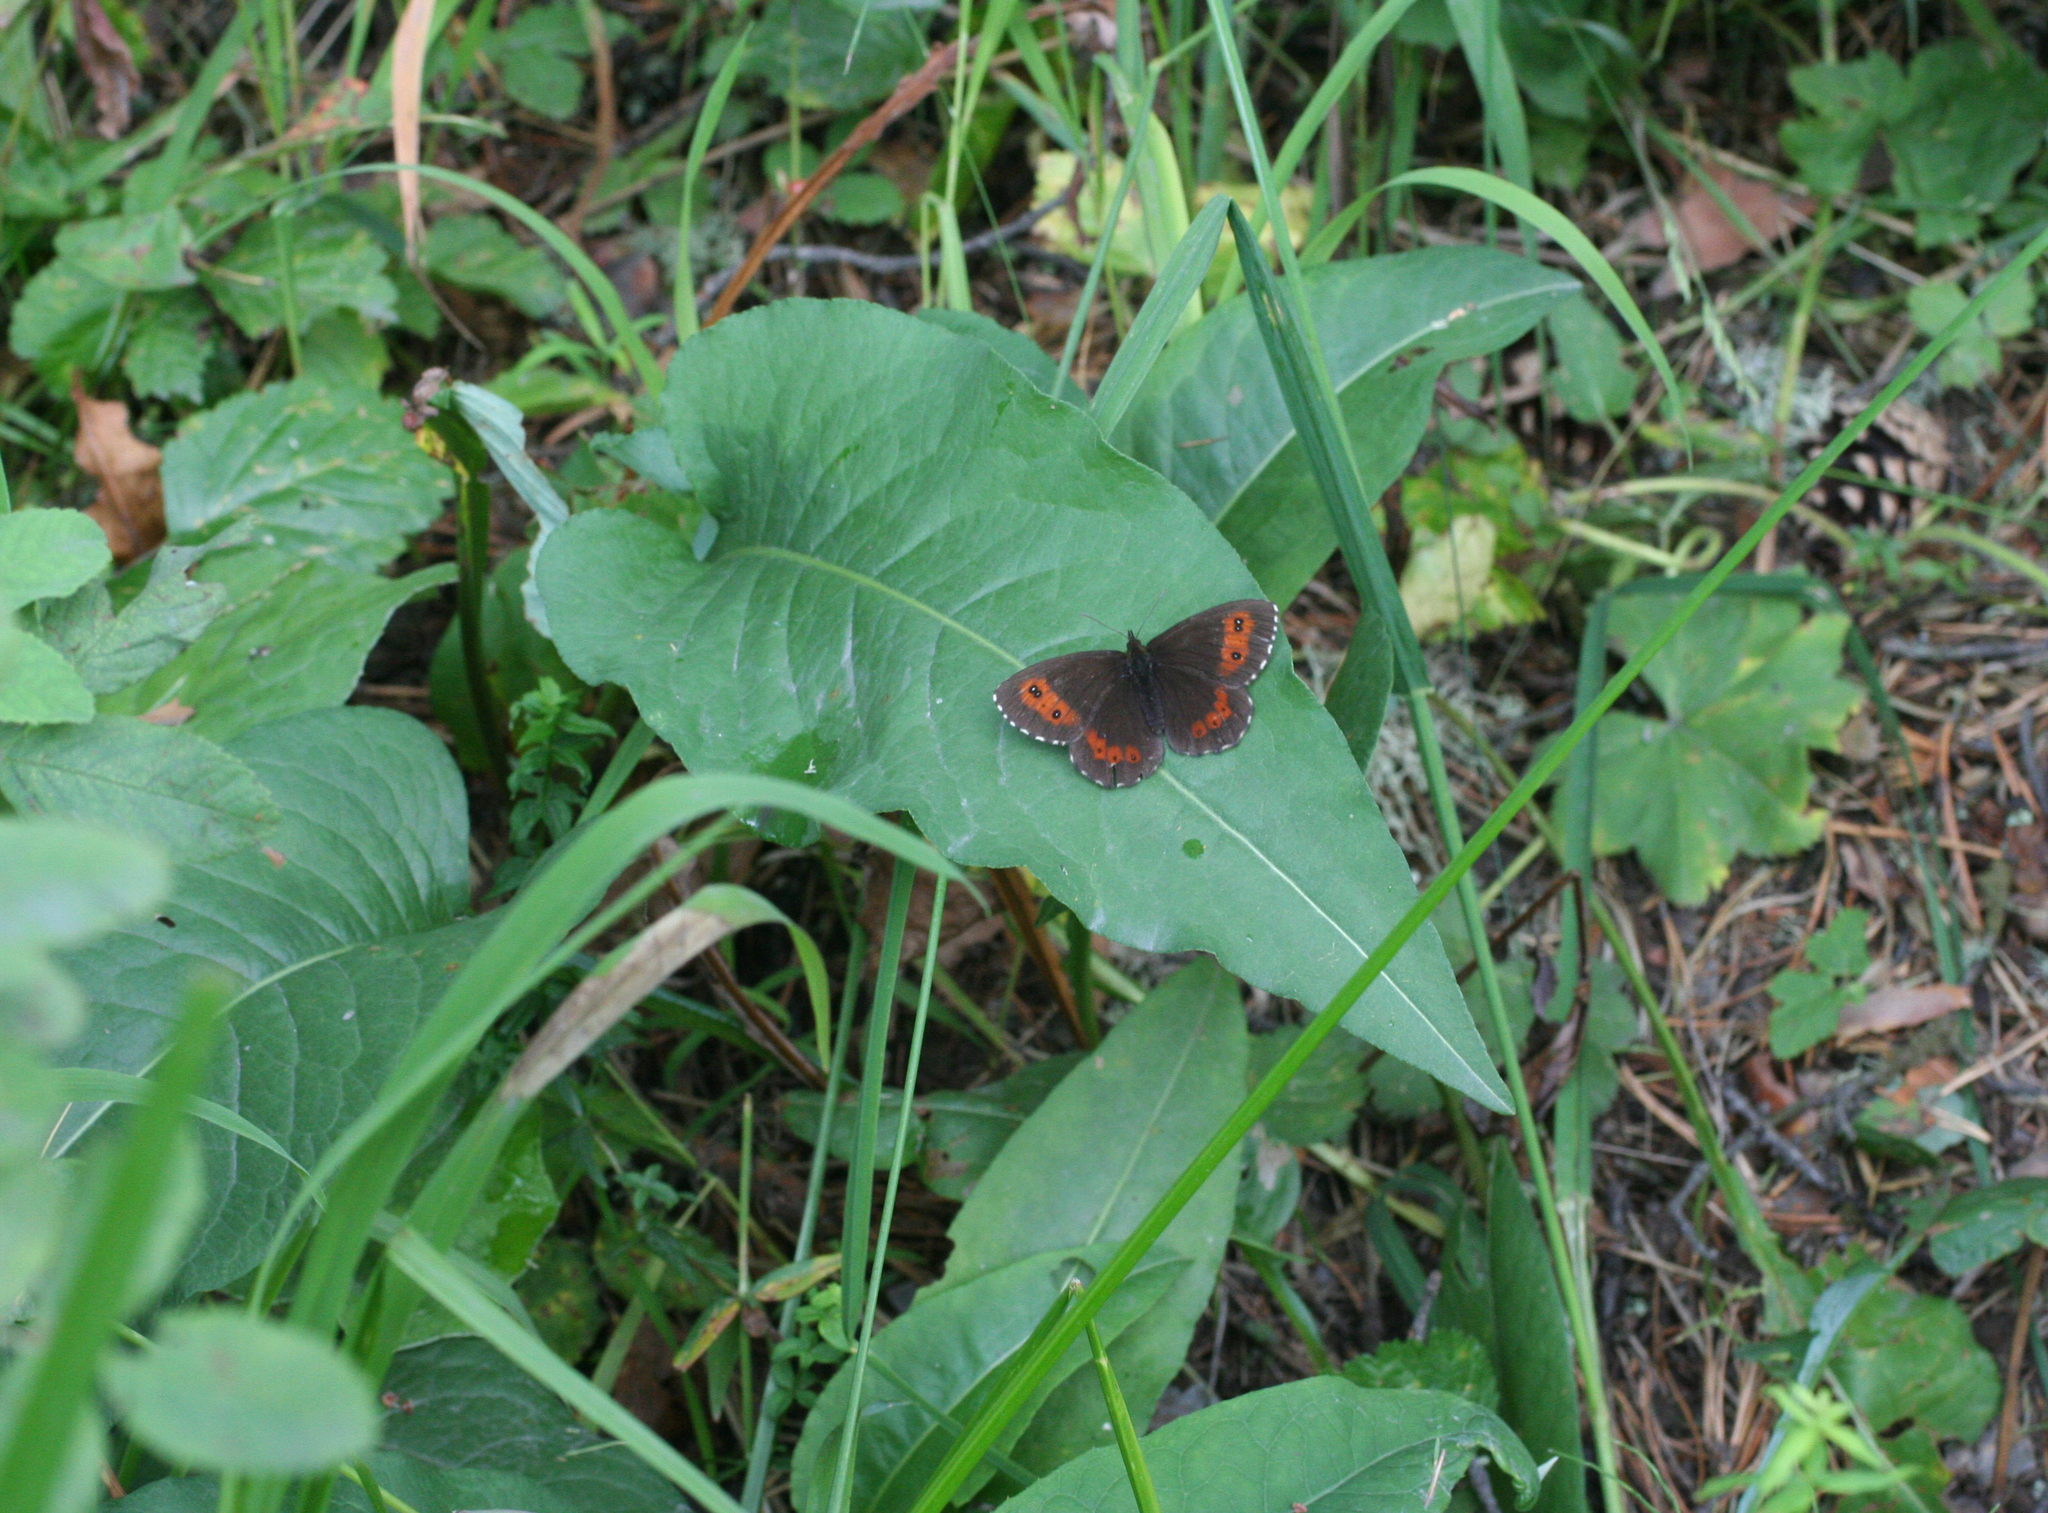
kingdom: Plantae
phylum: Tracheophyta
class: Magnoliopsida
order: Caryophyllales
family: Polygonaceae
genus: Bistorta
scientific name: Bistorta officinalis
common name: Common bistort
